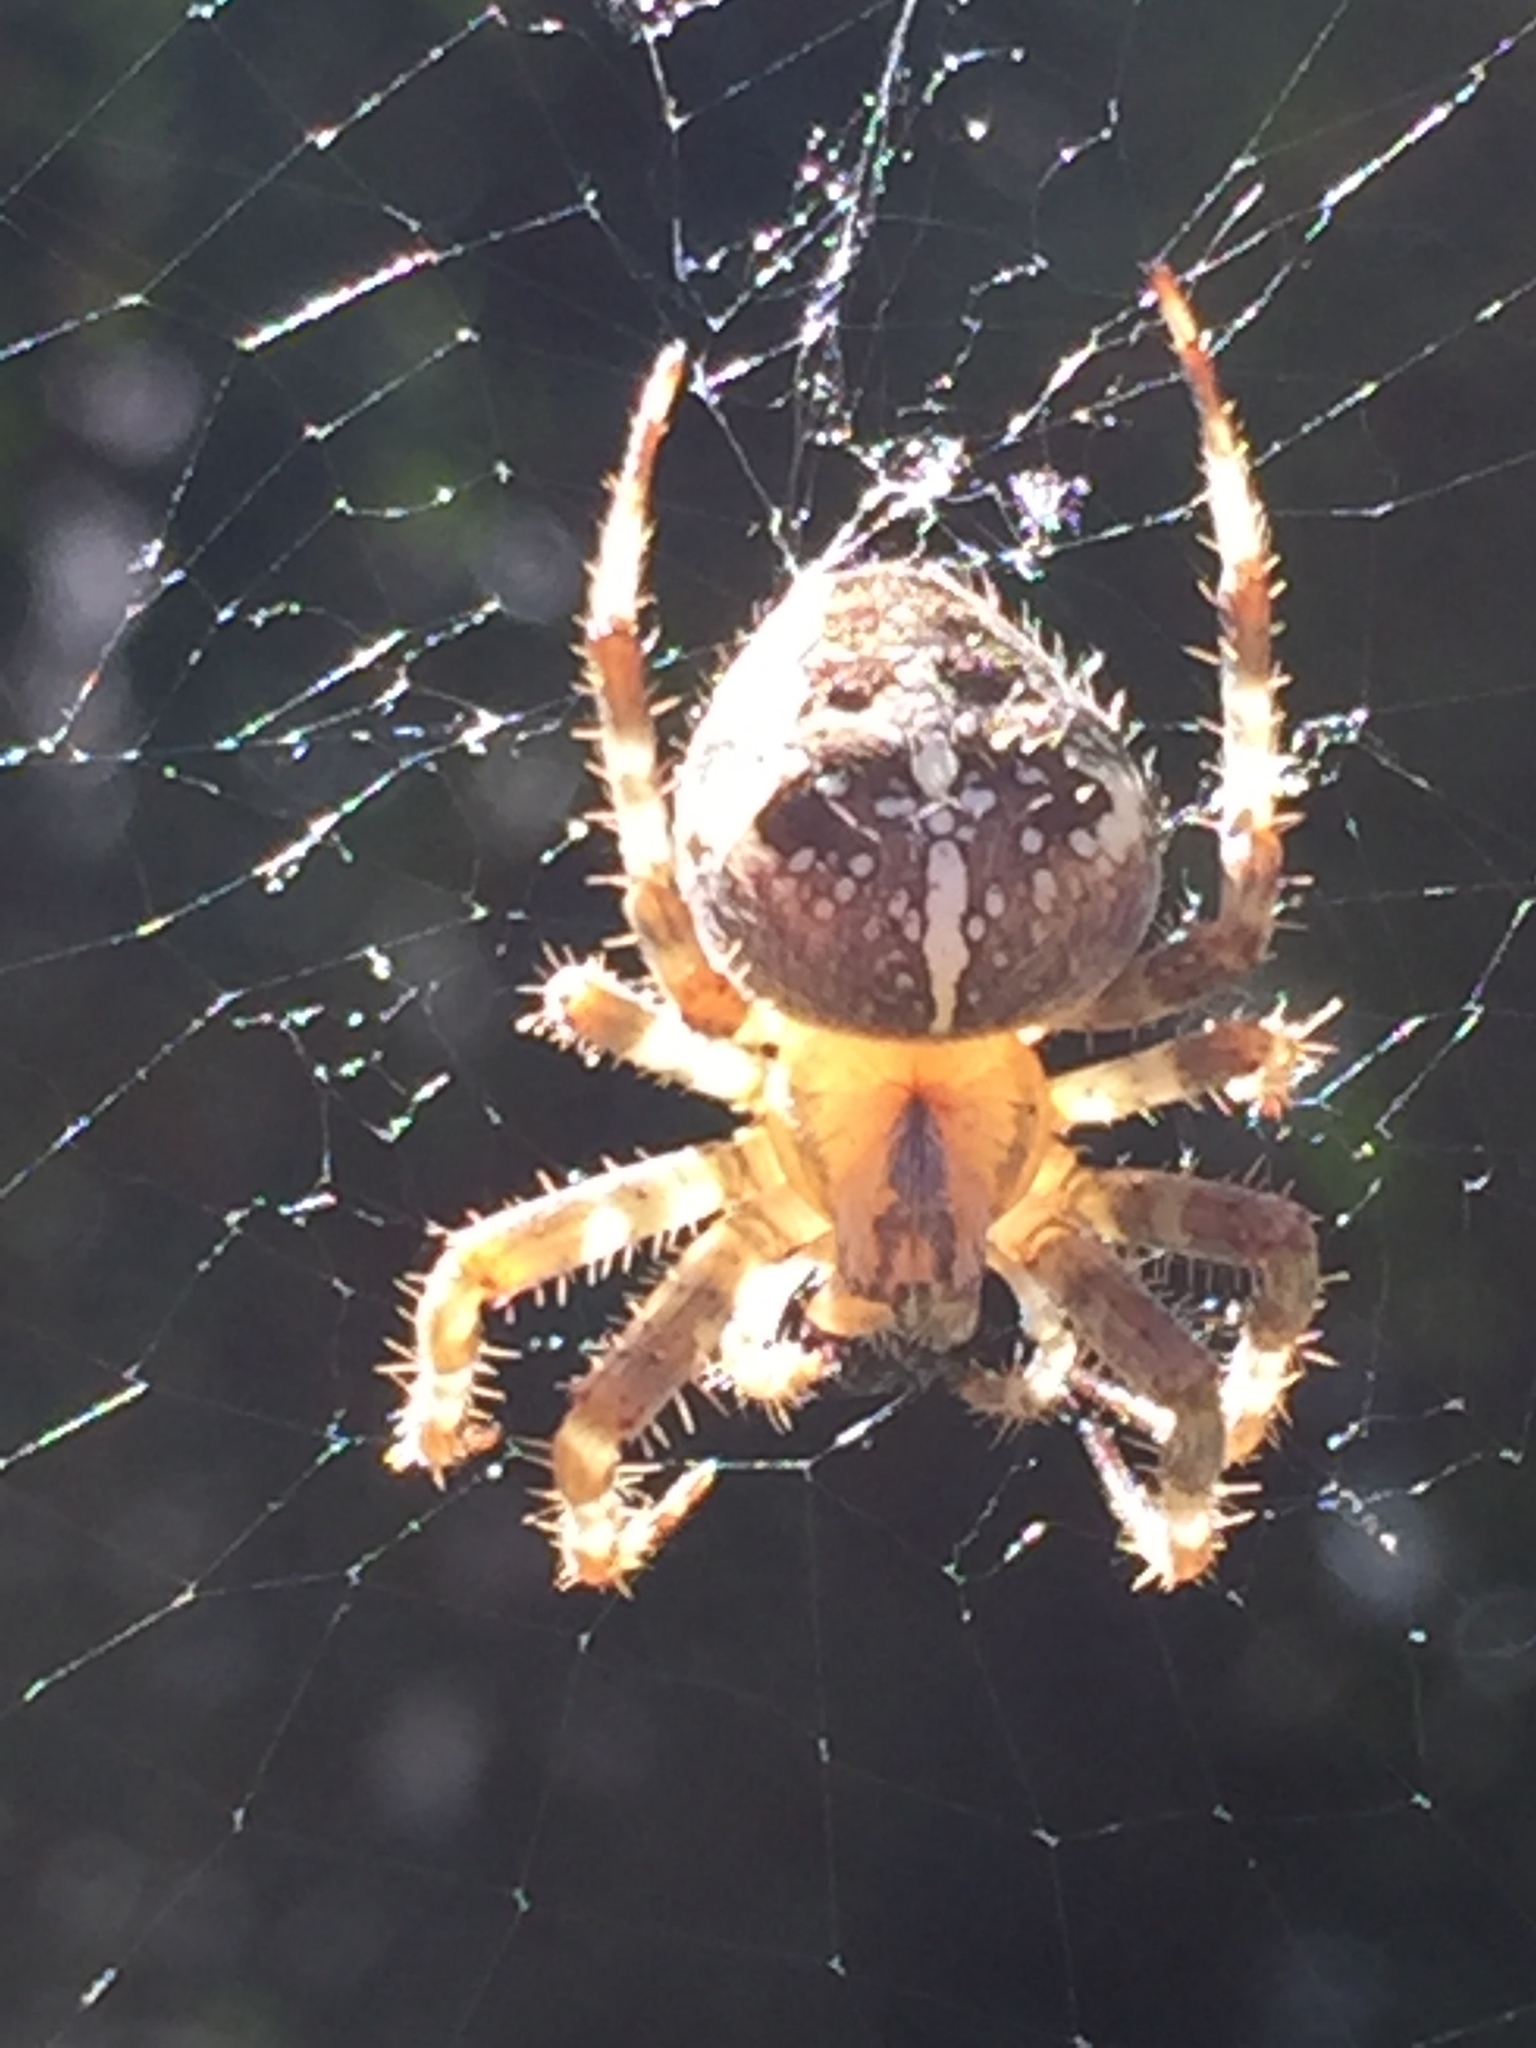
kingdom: Animalia
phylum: Arthropoda
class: Arachnida
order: Araneae
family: Araneidae
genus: Araneus
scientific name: Araneus diadematus
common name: Cross orbweaver
